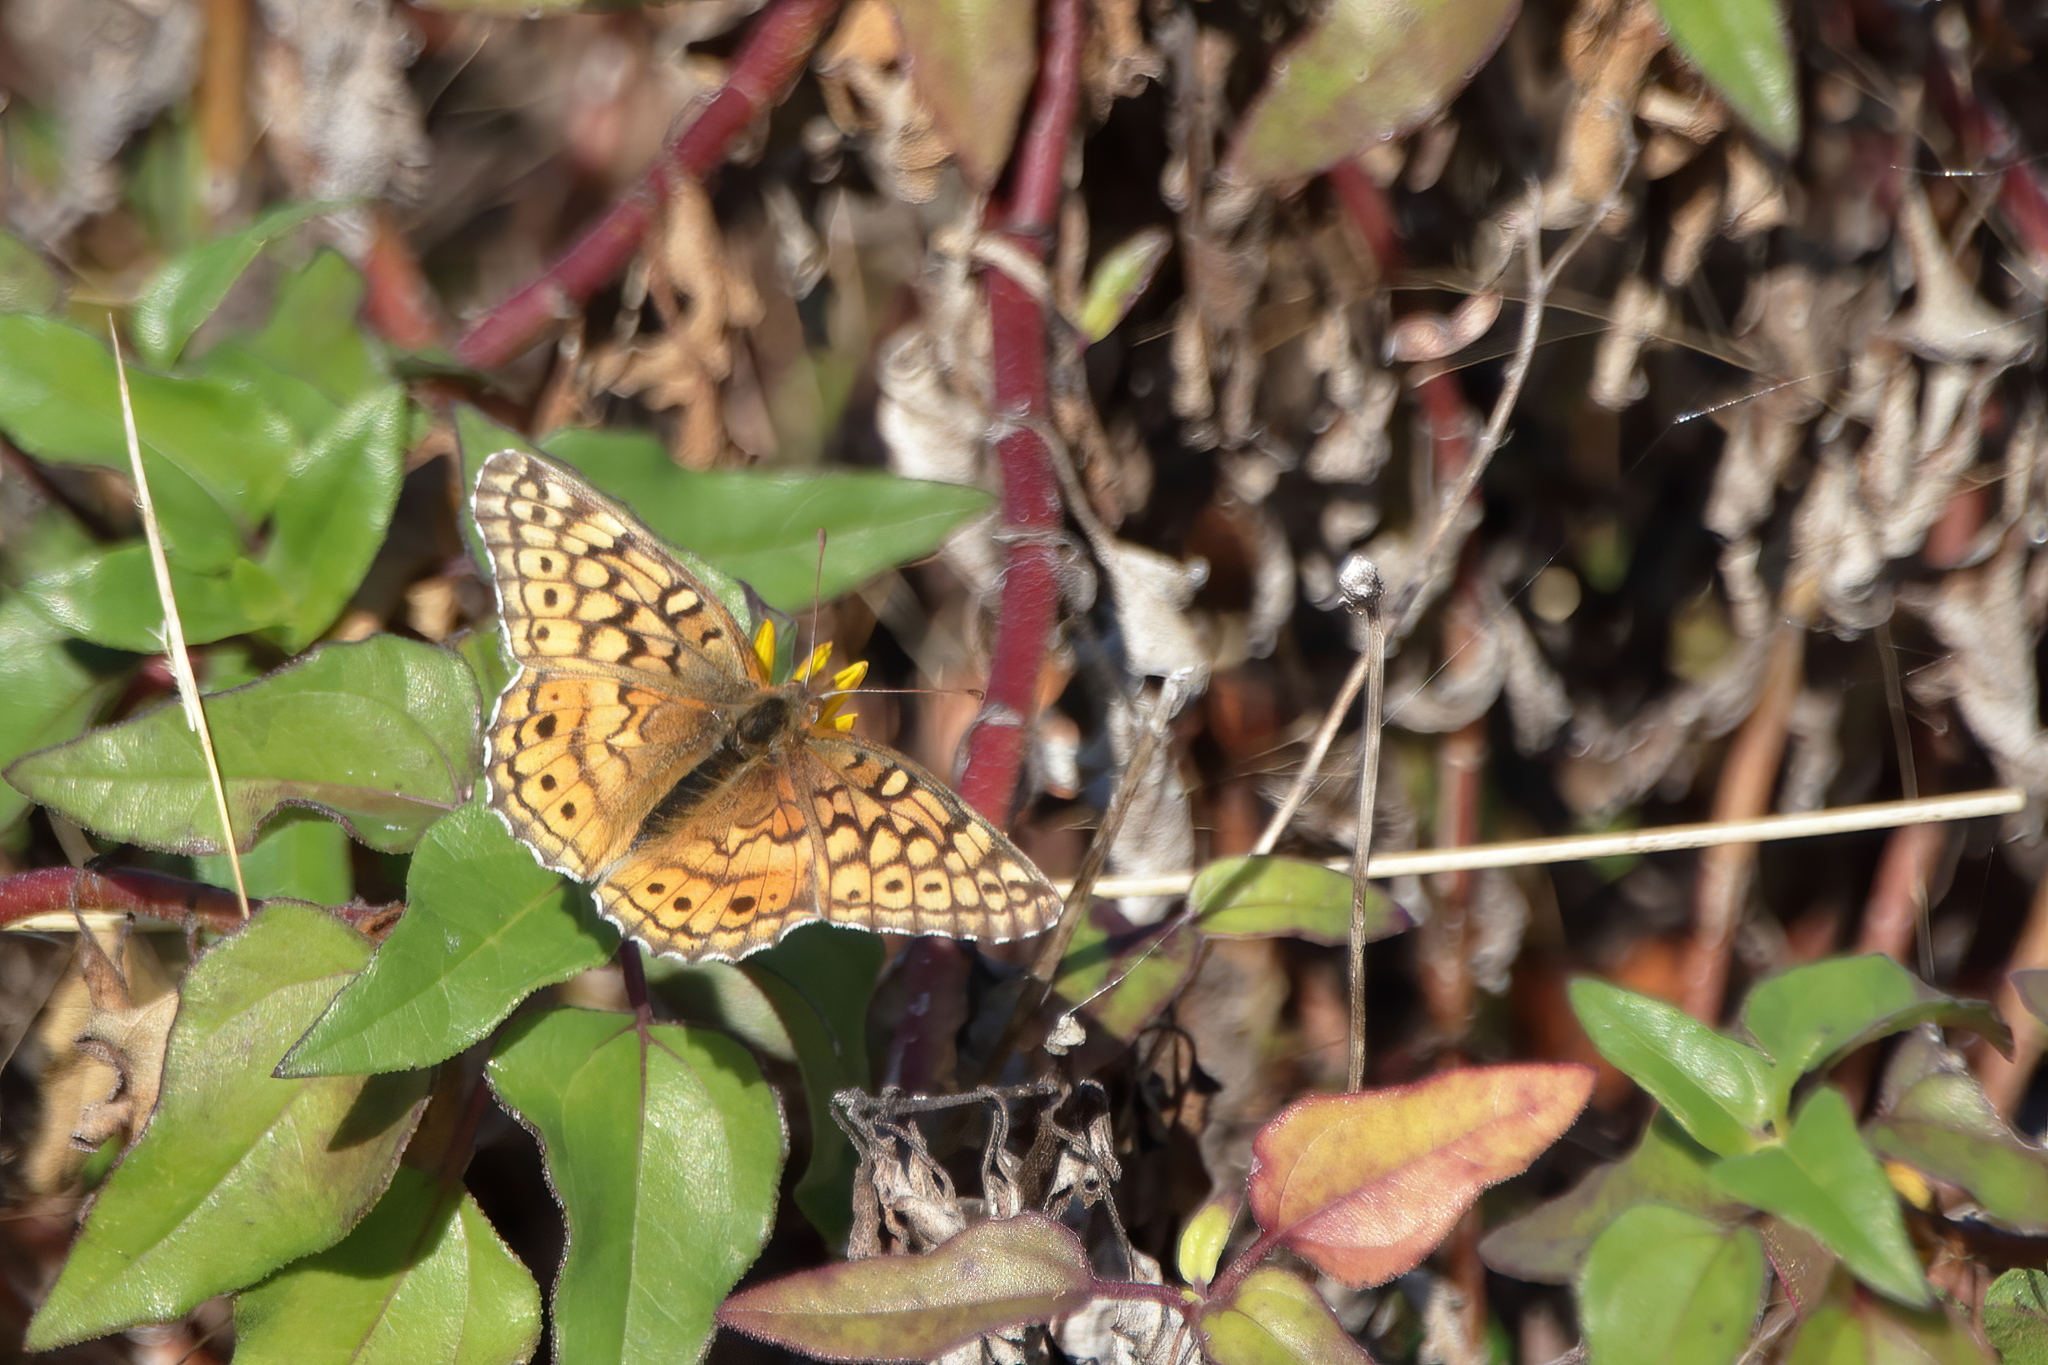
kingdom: Animalia
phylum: Arthropoda
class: Insecta
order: Lepidoptera
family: Nymphalidae
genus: Euptoieta
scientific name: Euptoieta claudia
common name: Variegated fritillary
